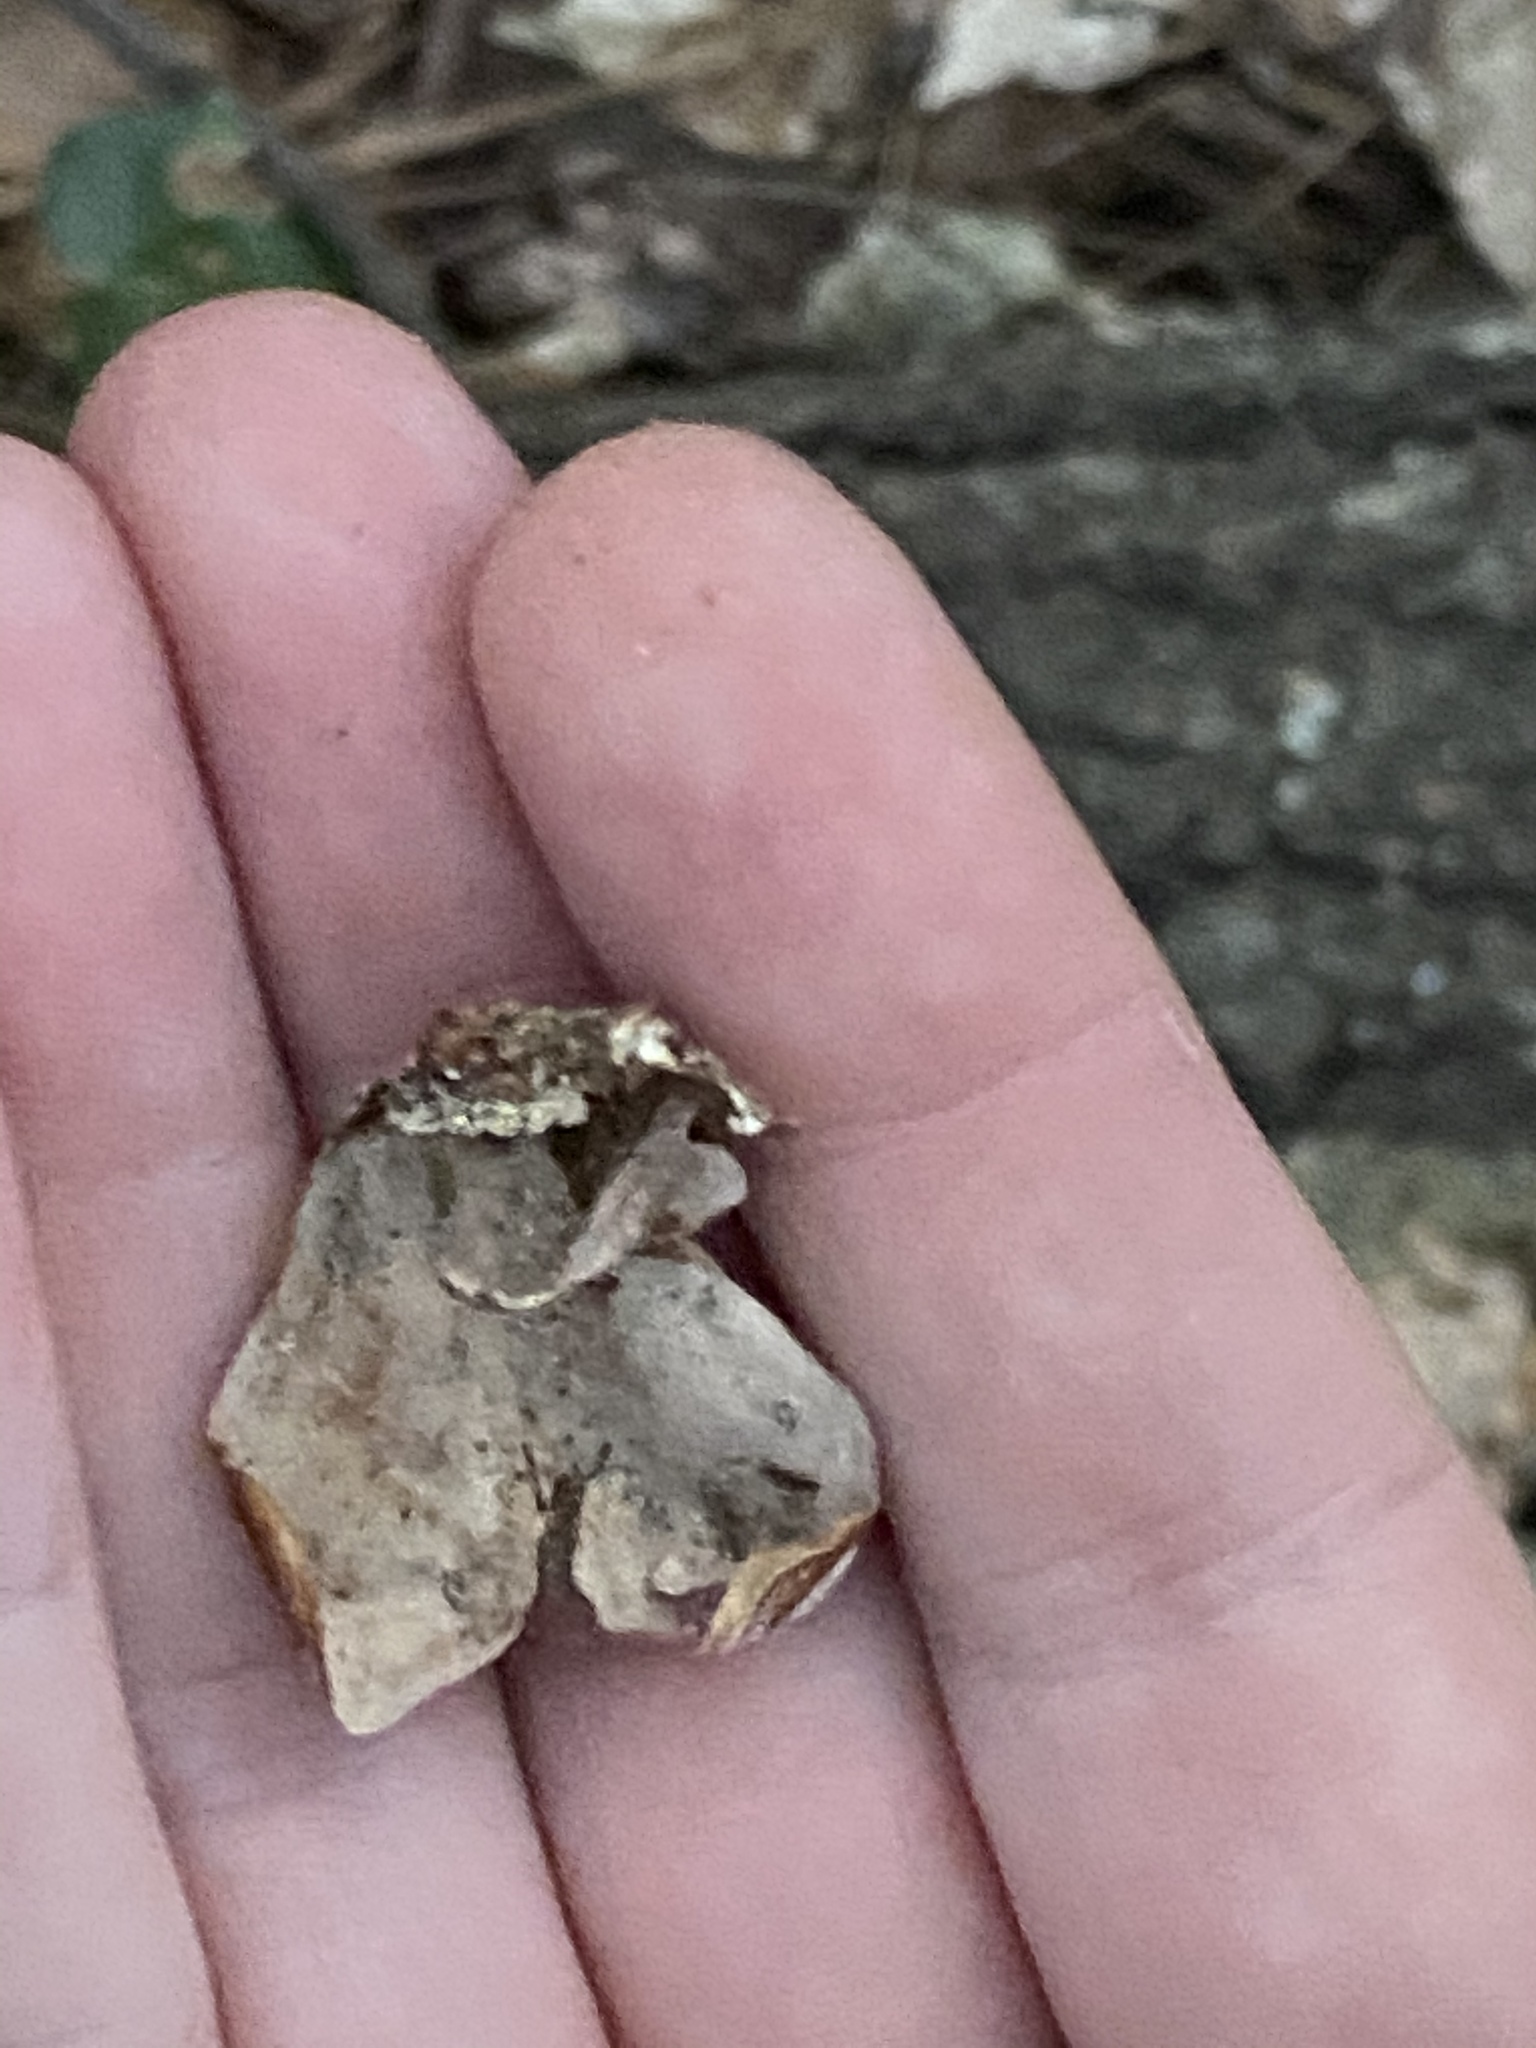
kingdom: Fungi
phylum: Basidiomycota
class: Agaricomycetes
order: Russulales
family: Stereaceae
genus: Stereum
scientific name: Stereum lobatum
